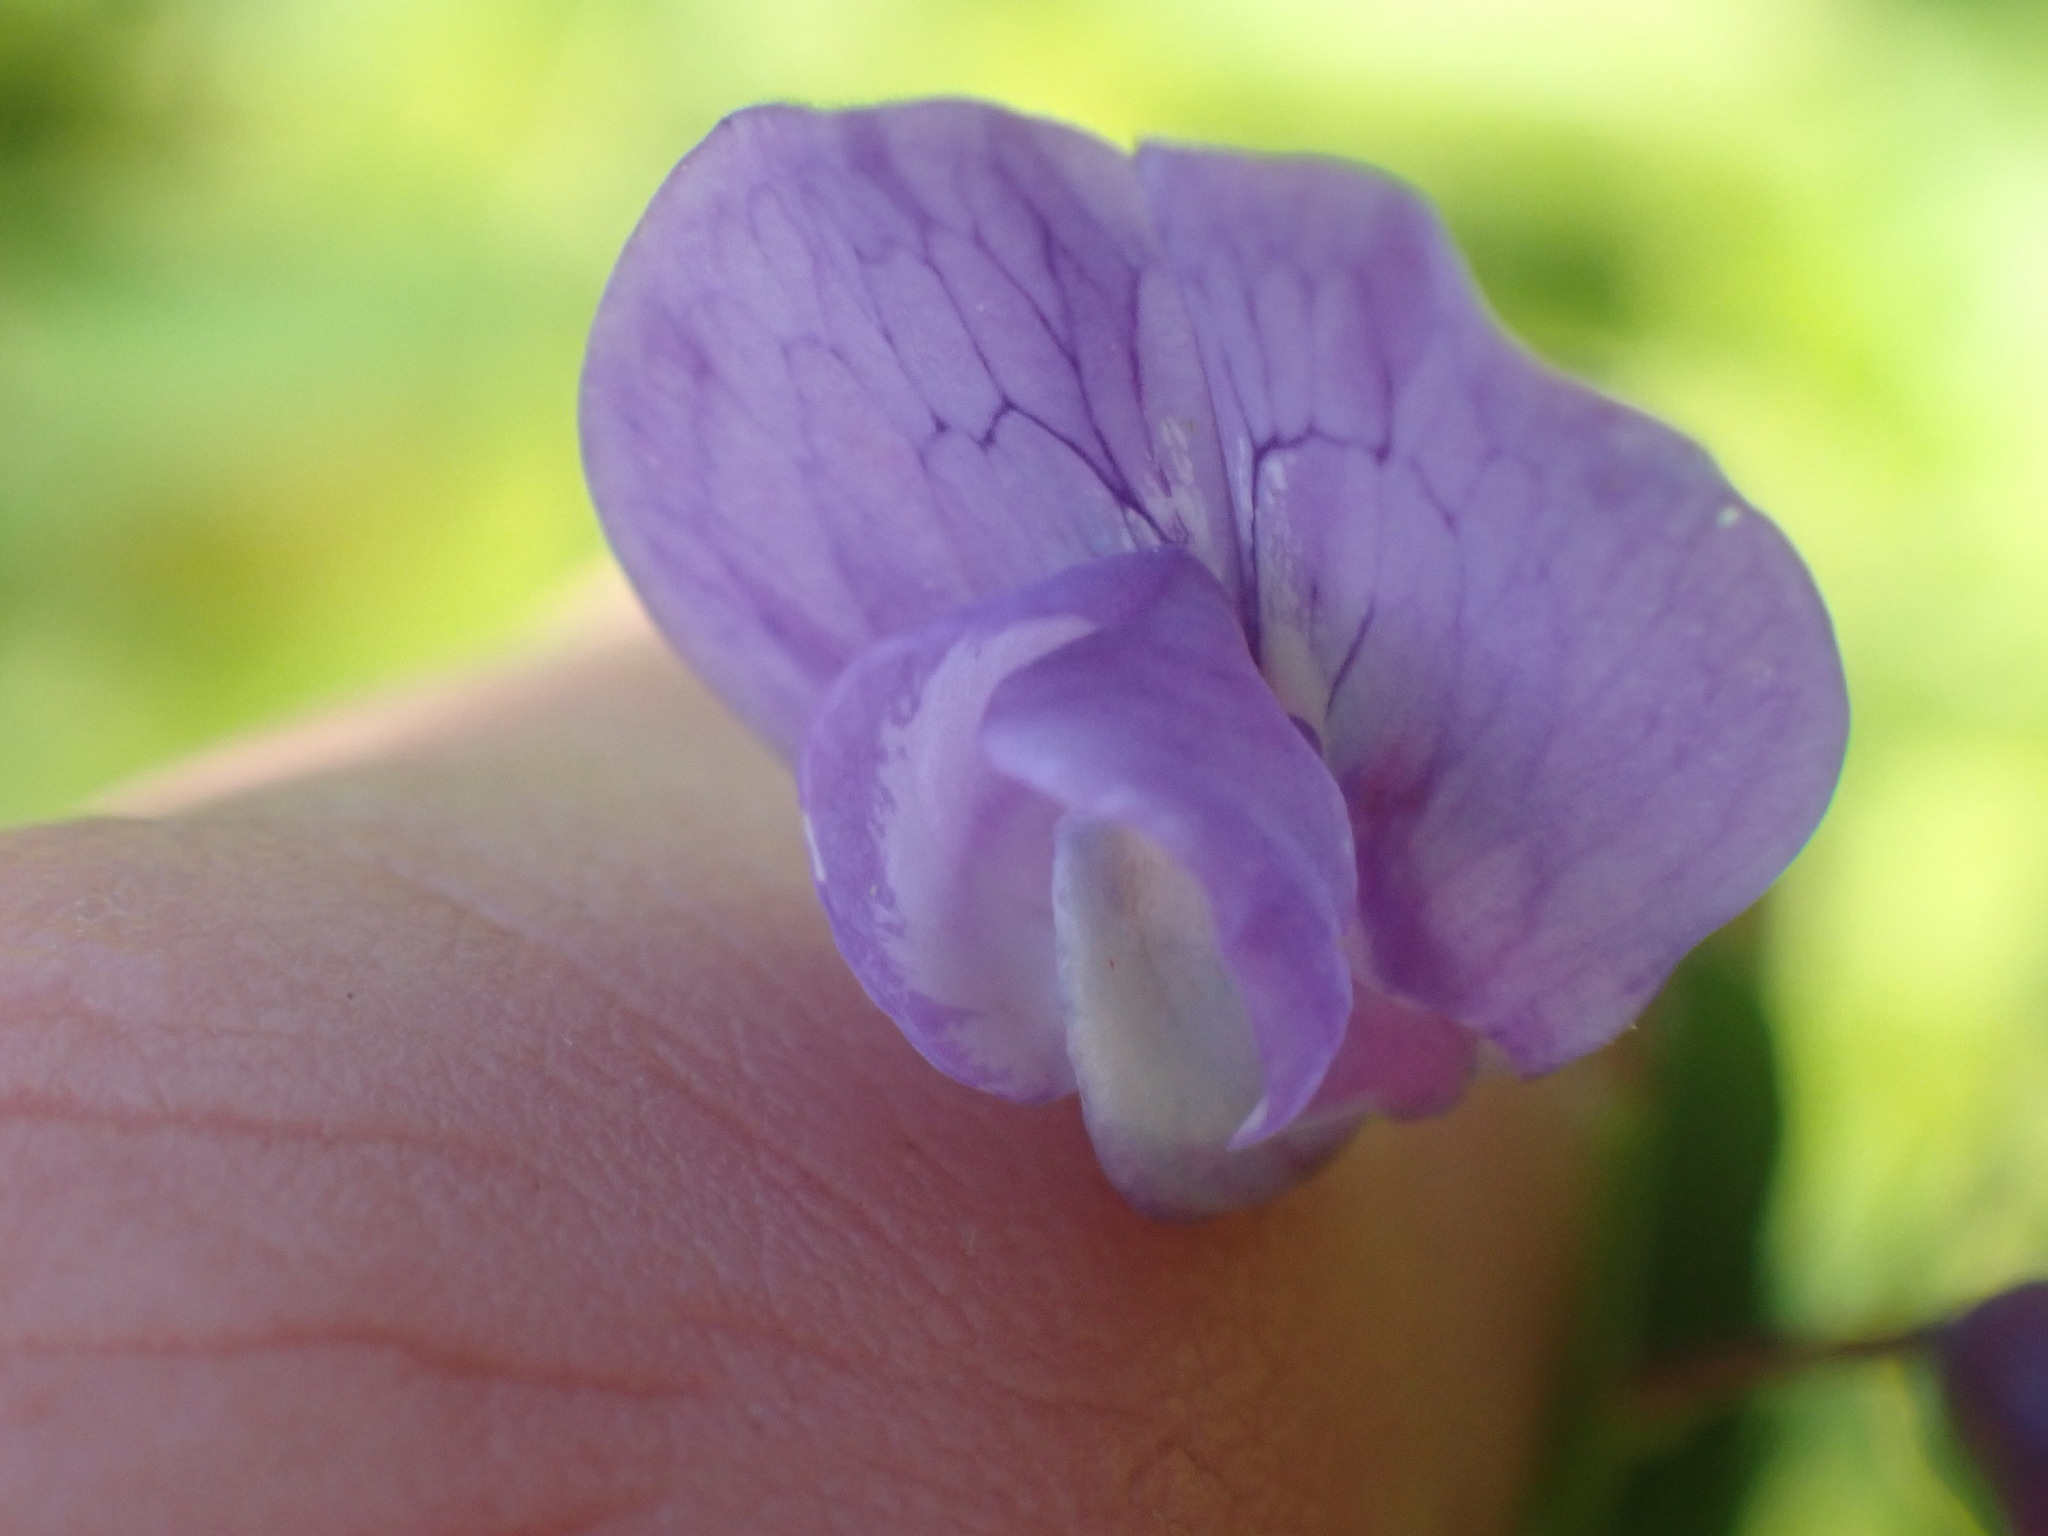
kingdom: Plantae
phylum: Tracheophyta
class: Magnoliopsida
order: Fabales
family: Fabaceae
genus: Lathyrus
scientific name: Lathyrus palustris
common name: Marsh pea
